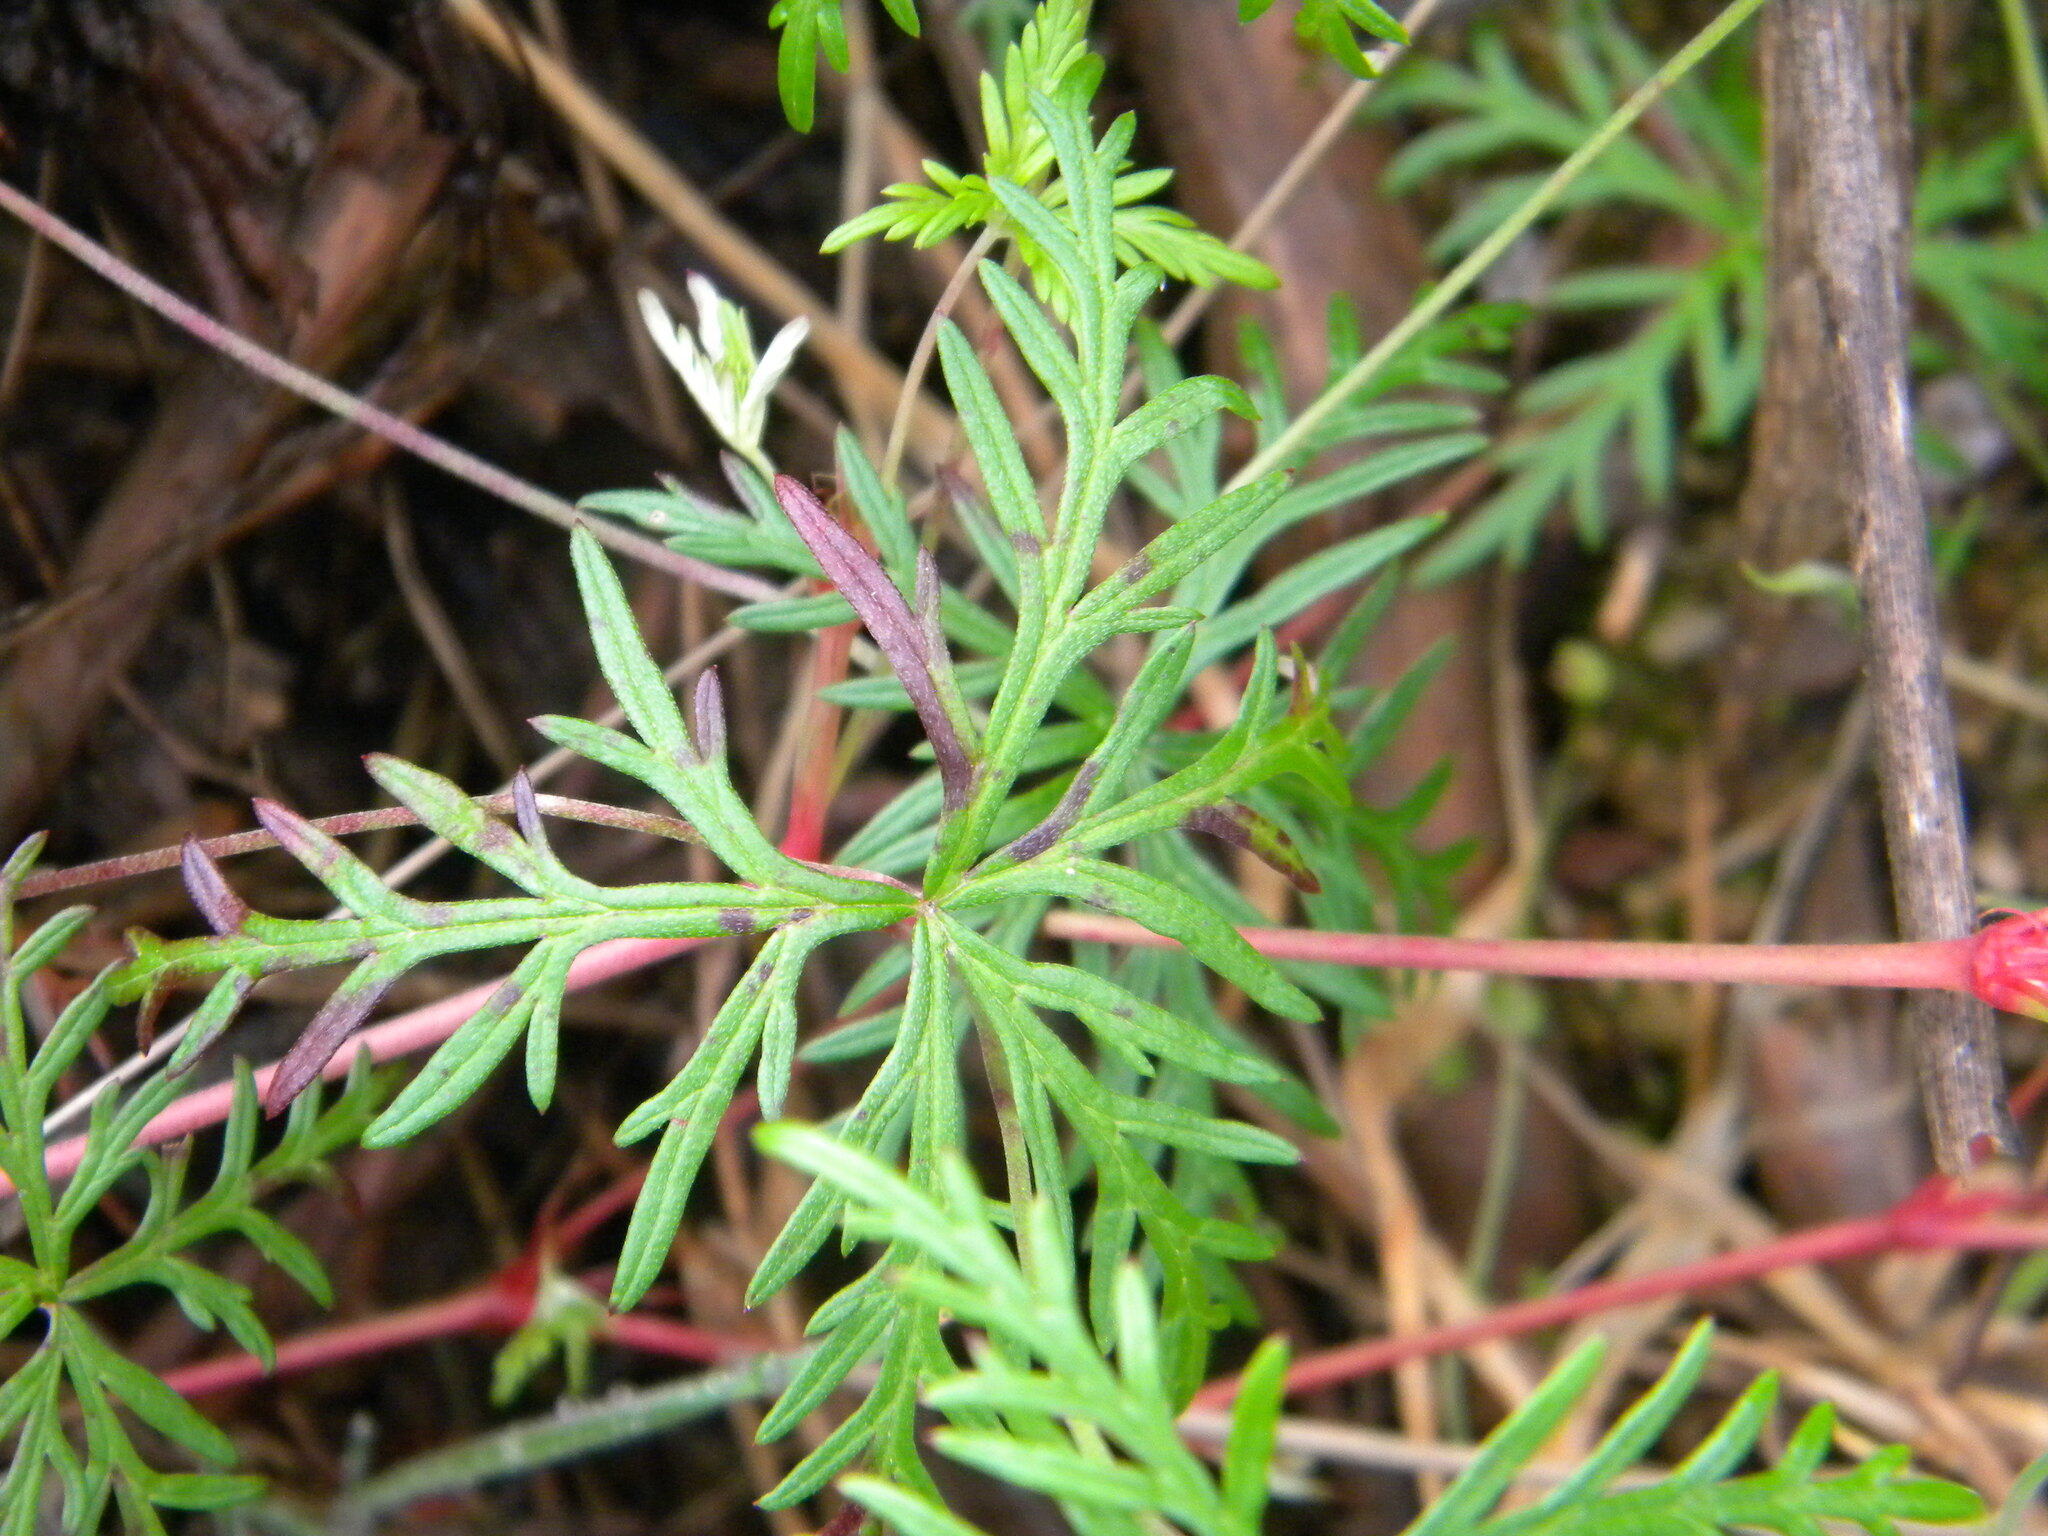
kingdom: Plantae
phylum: Tracheophyta
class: Magnoliopsida
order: Geraniales
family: Geraniaceae
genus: Geranium
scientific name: Geranium incanum
